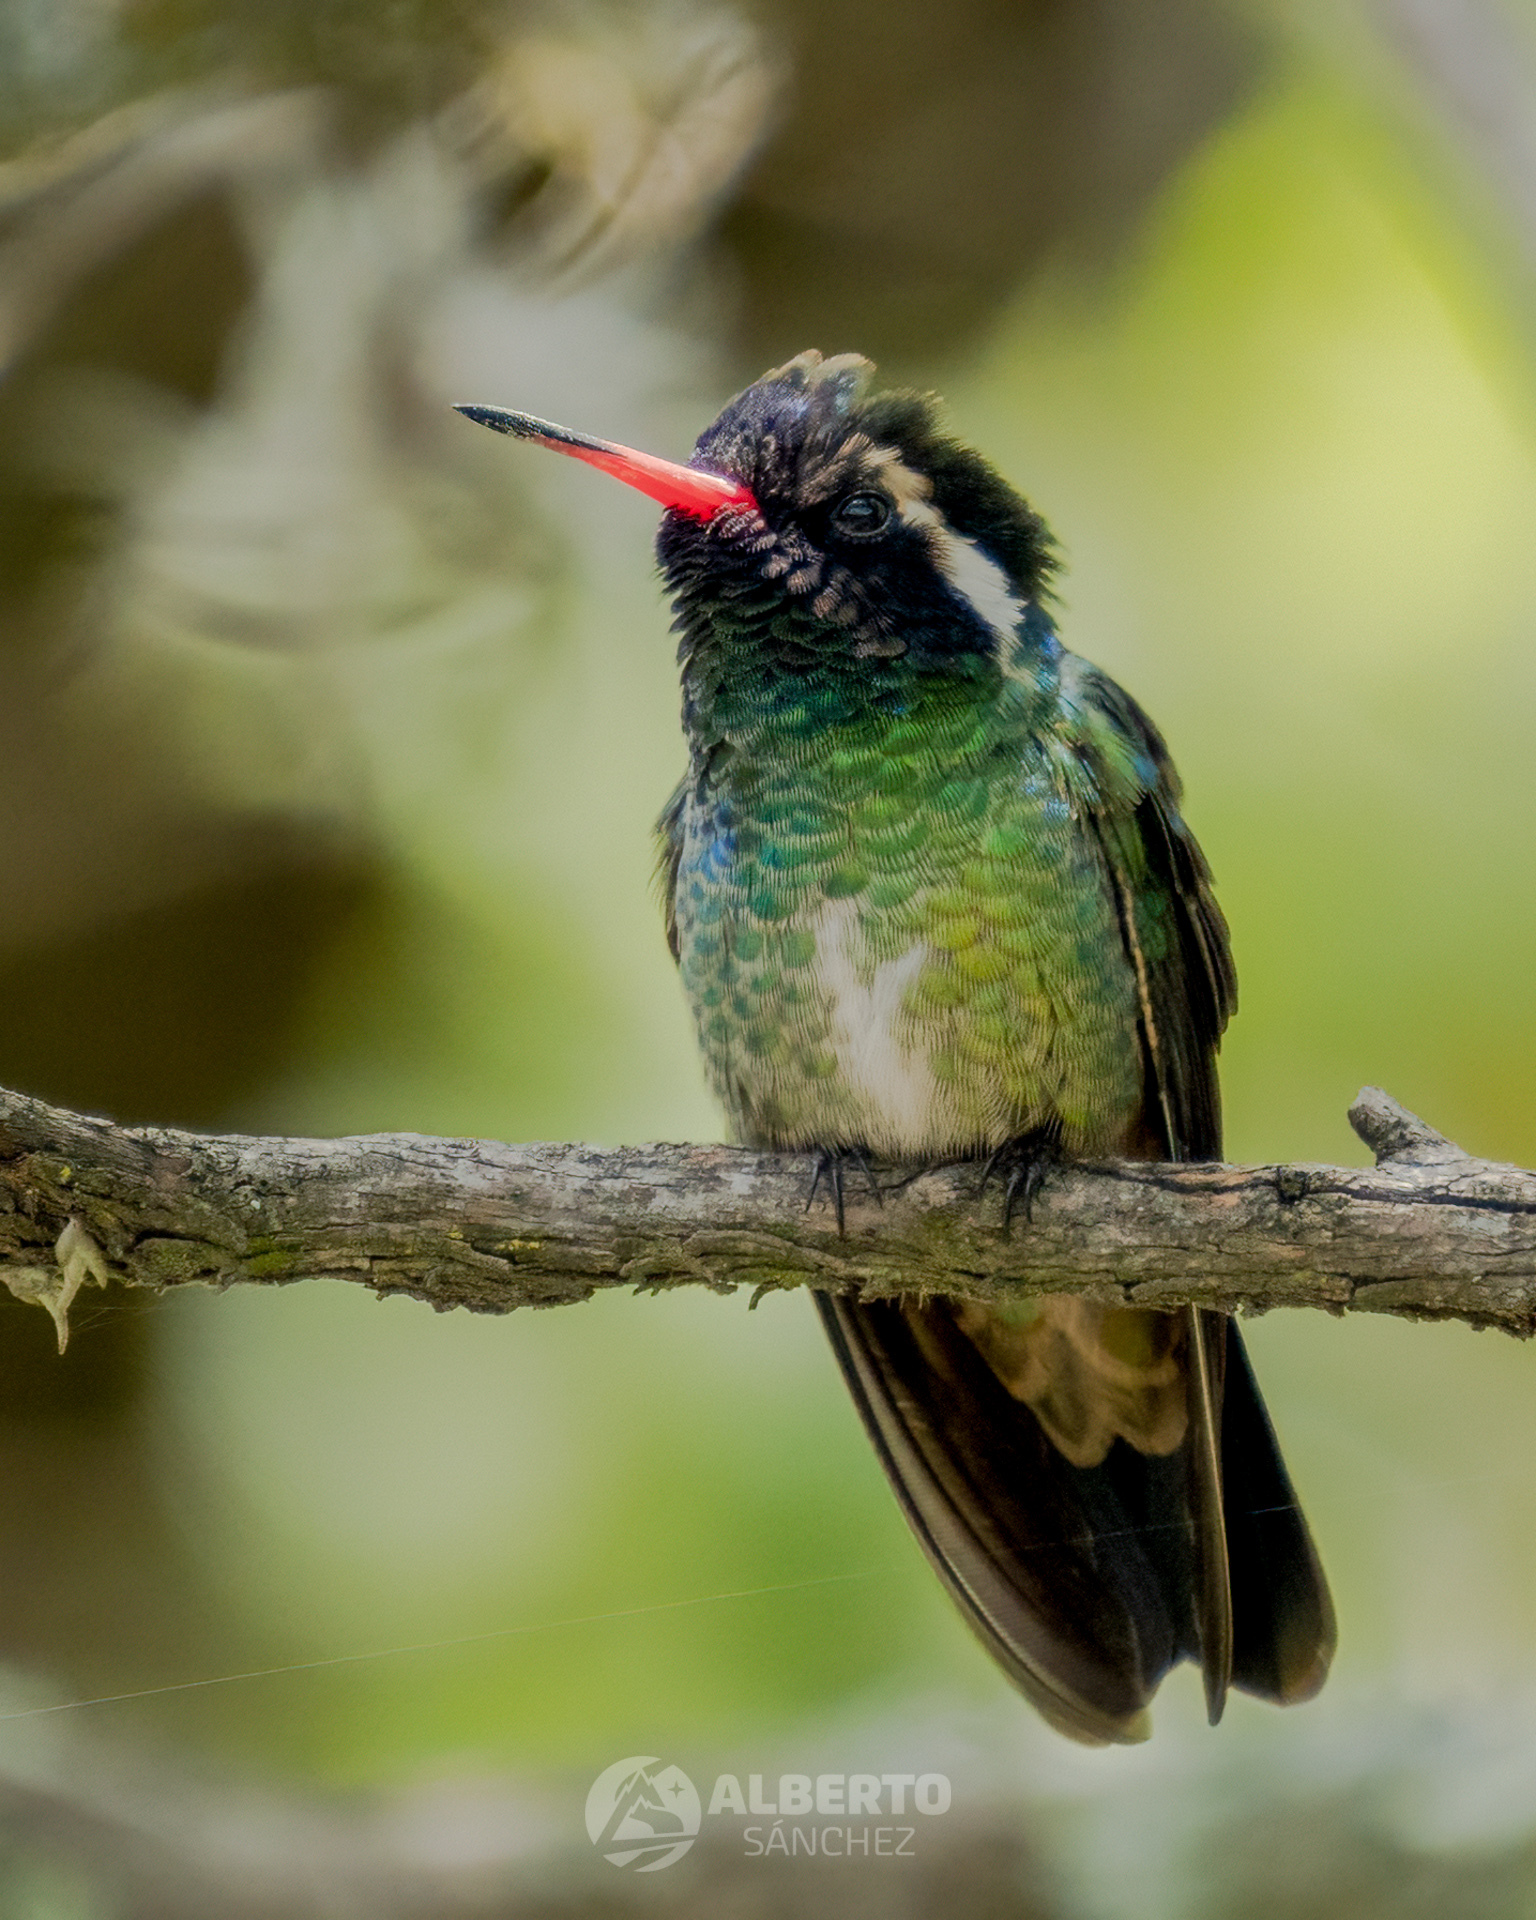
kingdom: Animalia
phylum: Chordata
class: Aves
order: Apodiformes
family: Trochilidae
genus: Basilinna
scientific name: Basilinna leucotis
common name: White-eared hummingbird
